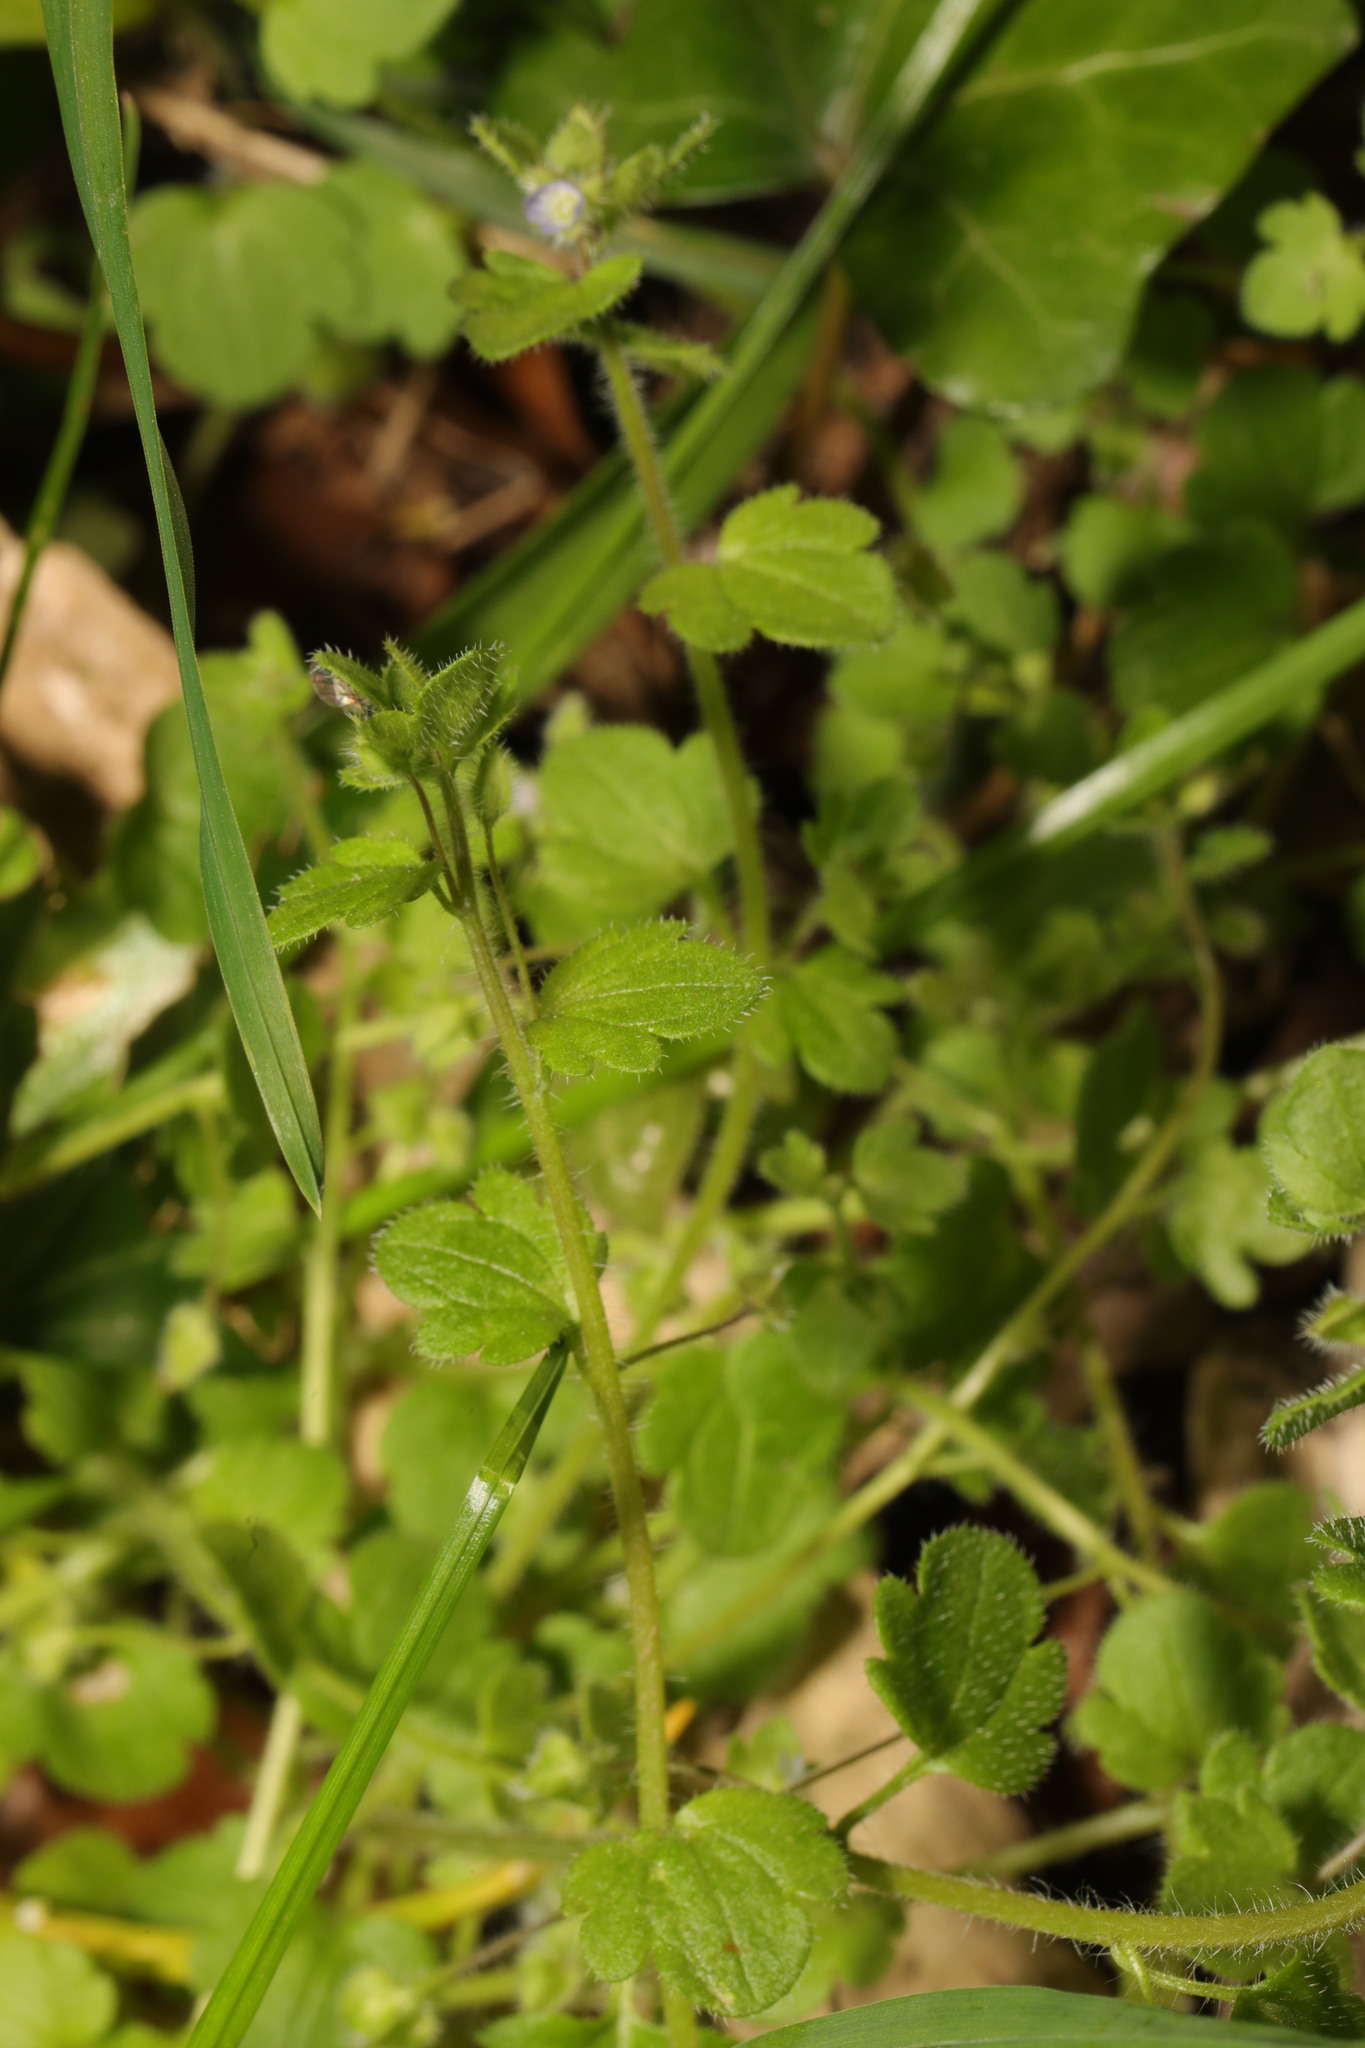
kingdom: Plantae
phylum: Tracheophyta
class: Magnoliopsida
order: Lamiales
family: Plantaginaceae
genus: Veronica
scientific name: Veronica hederifolia
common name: Ivy-leaved speedwell
